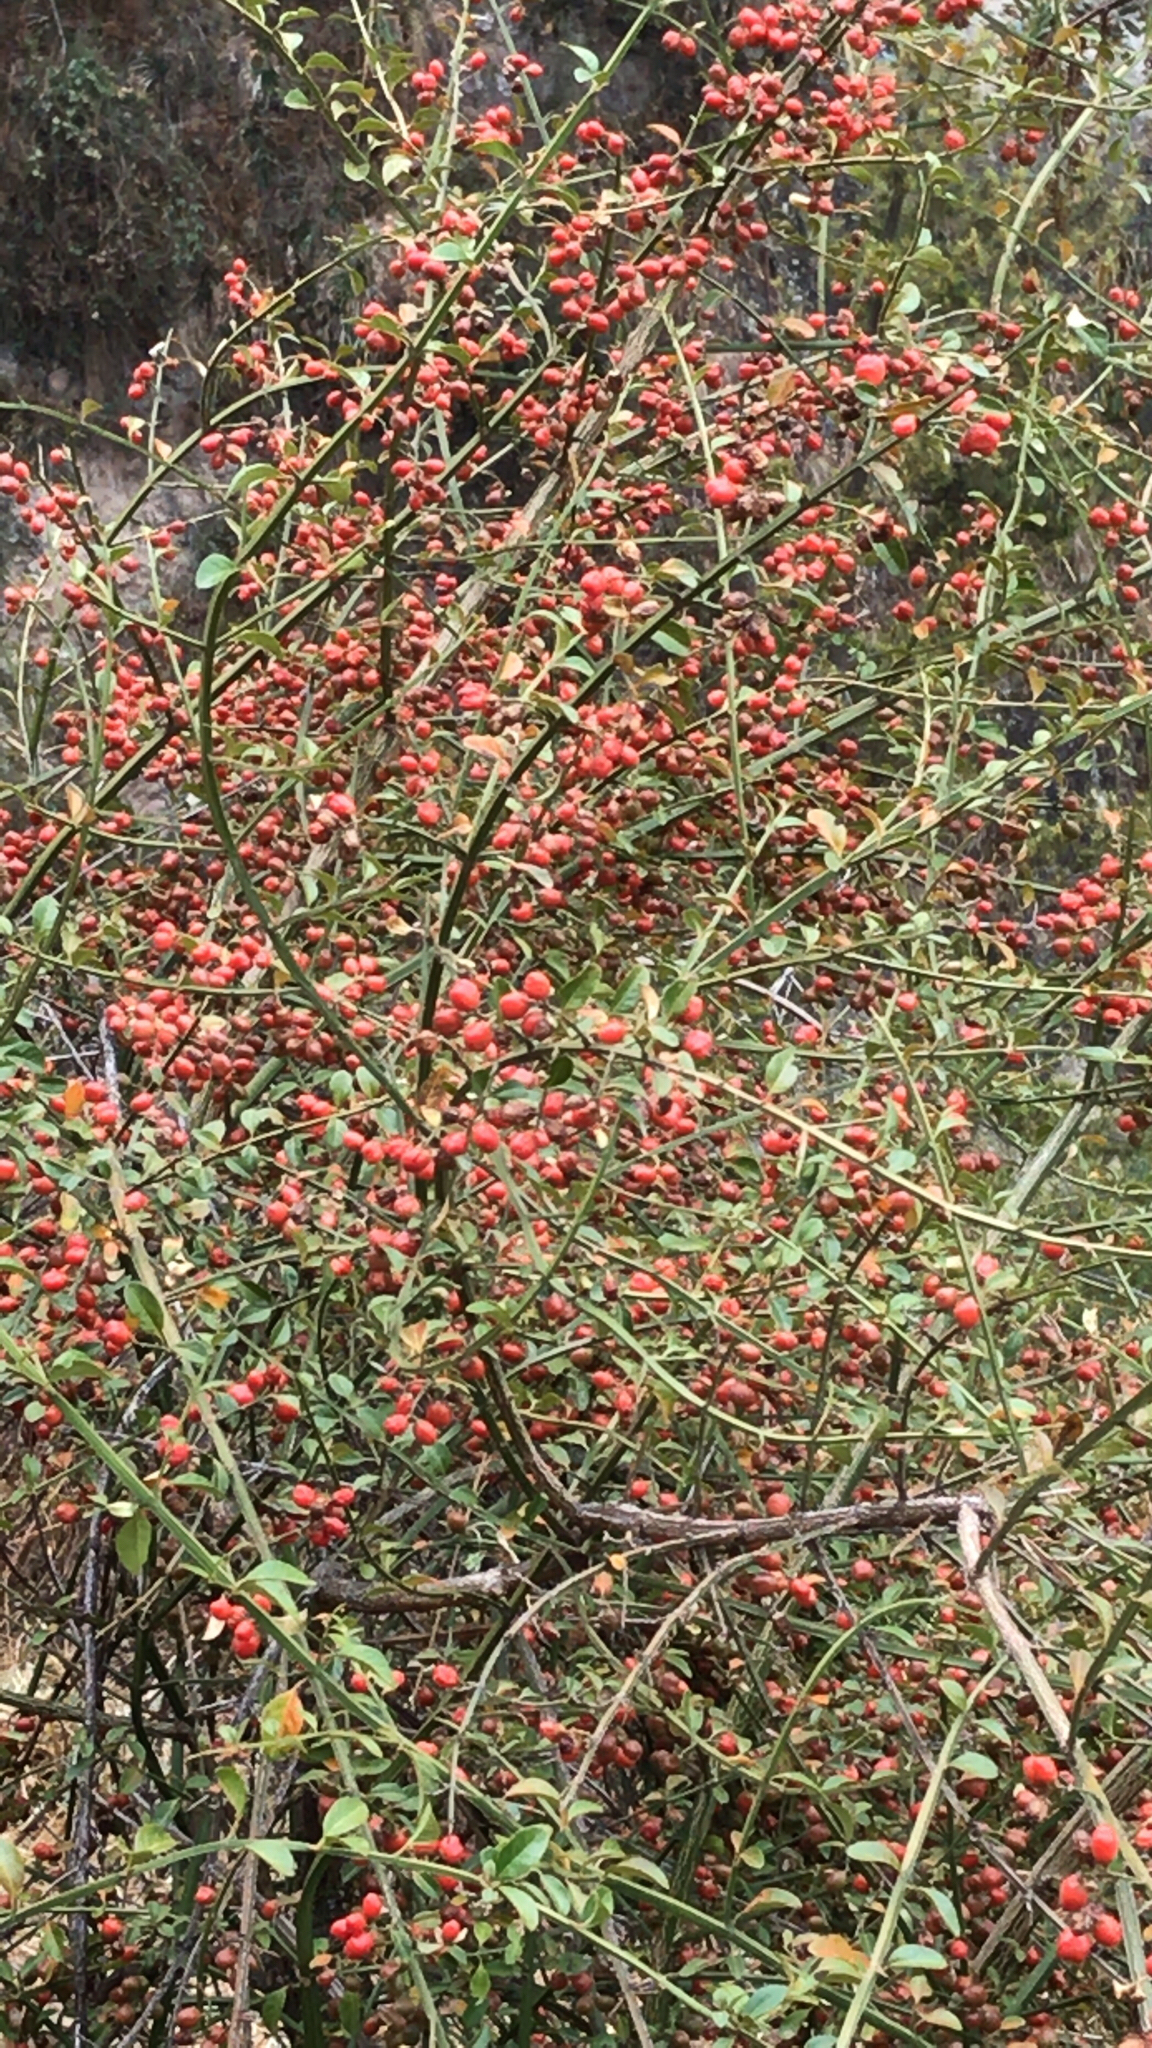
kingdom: Plantae
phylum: Tracheophyta
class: Magnoliopsida
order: Lamiales
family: Verbenaceae
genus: Citharexylum
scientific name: Citharexylum herrerae
